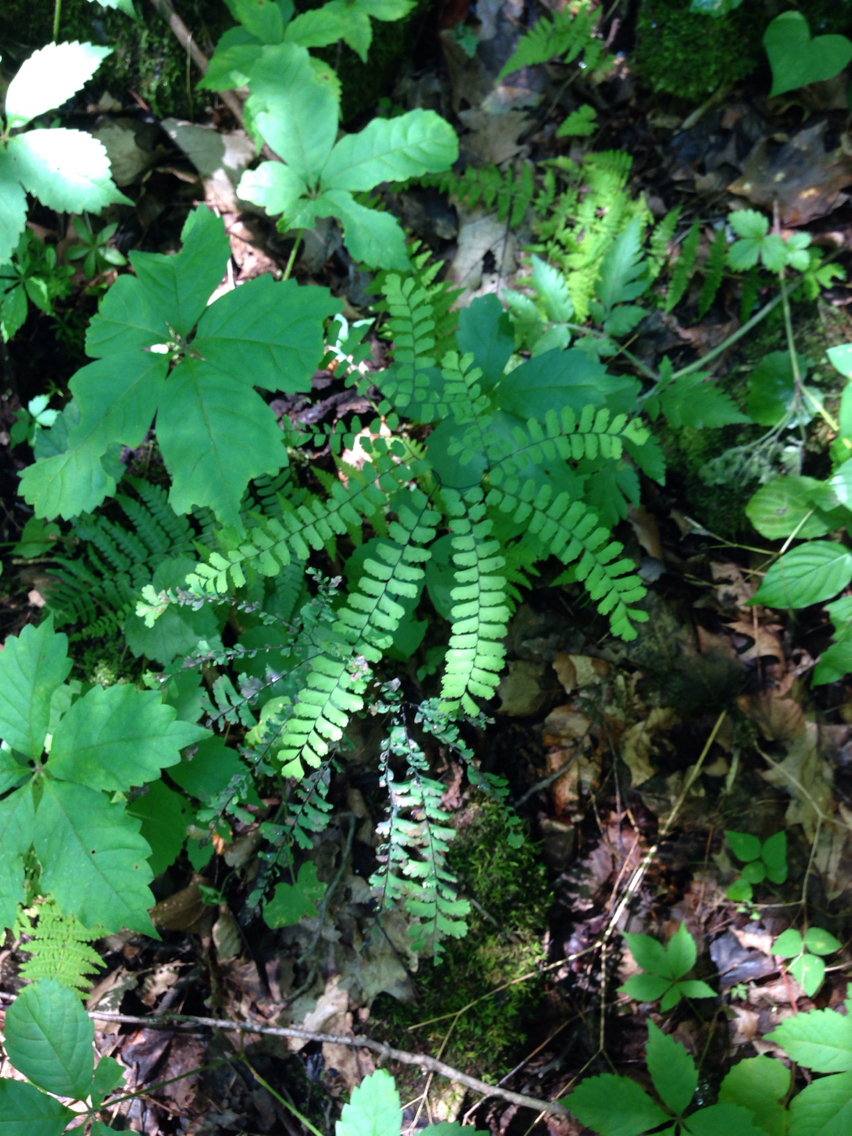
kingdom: Plantae
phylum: Tracheophyta
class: Polypodiopsida
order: Polypodiales
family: Pteridaceae
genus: Adiantum
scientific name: Adiantum pedatum
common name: Five-finger fern
